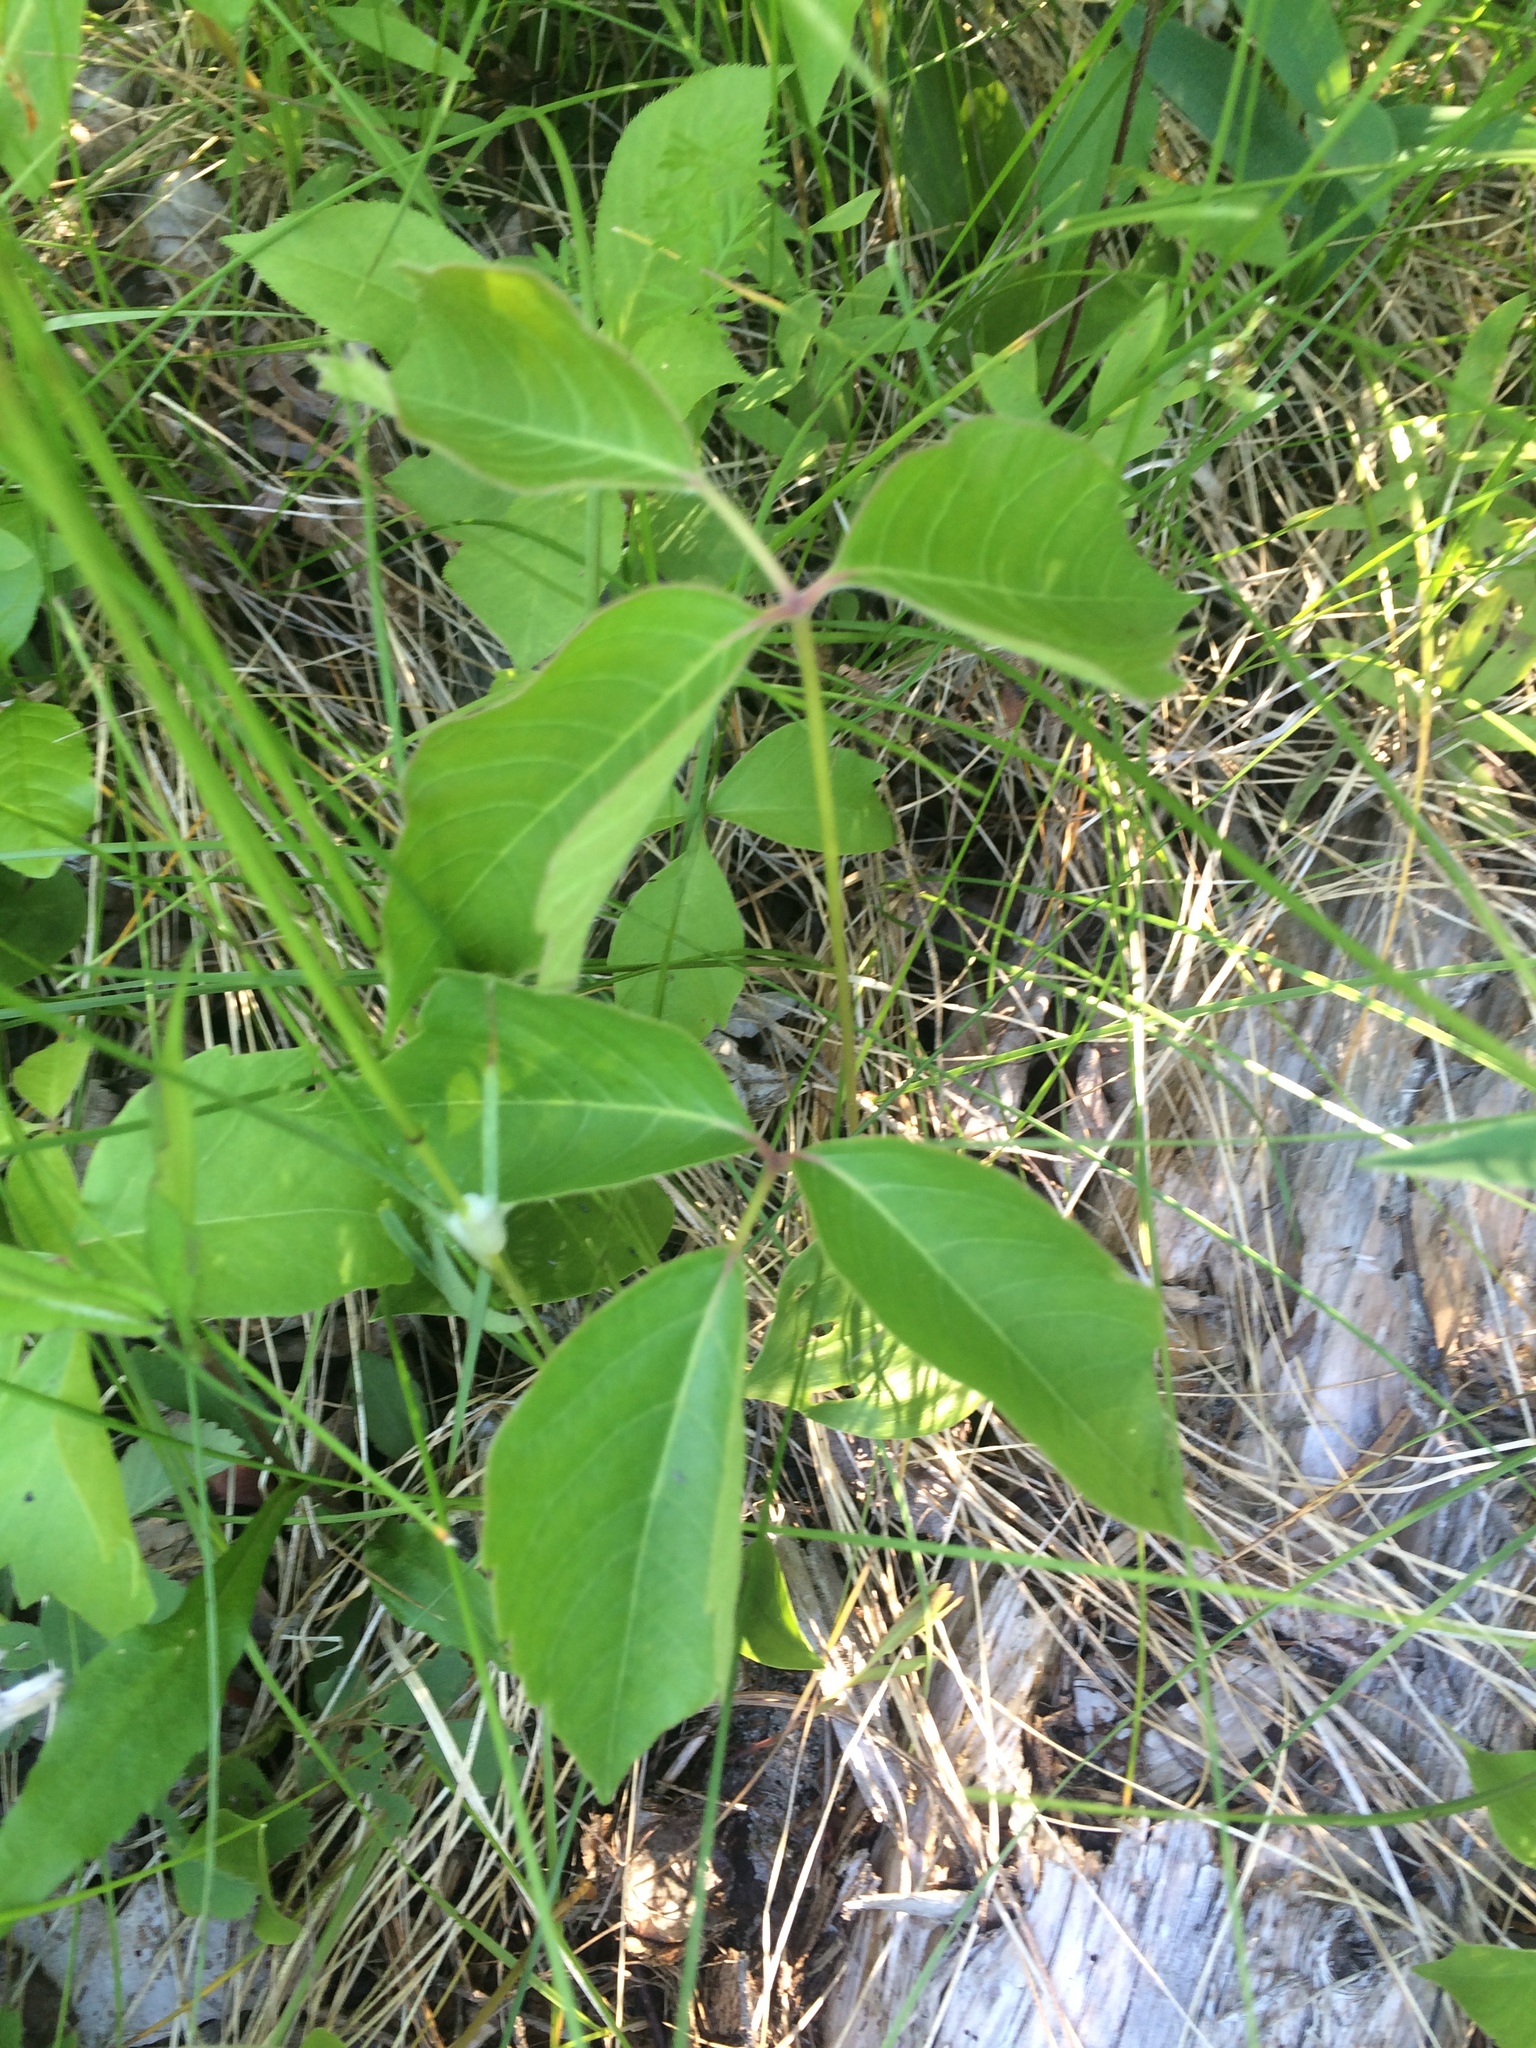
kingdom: Plantae
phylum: Tracheophyta
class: Magnoliopsida
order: Sapindales
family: Anacardiaceae
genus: Toxicodendron
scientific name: Toxicodendron radicans
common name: Poison ivy
